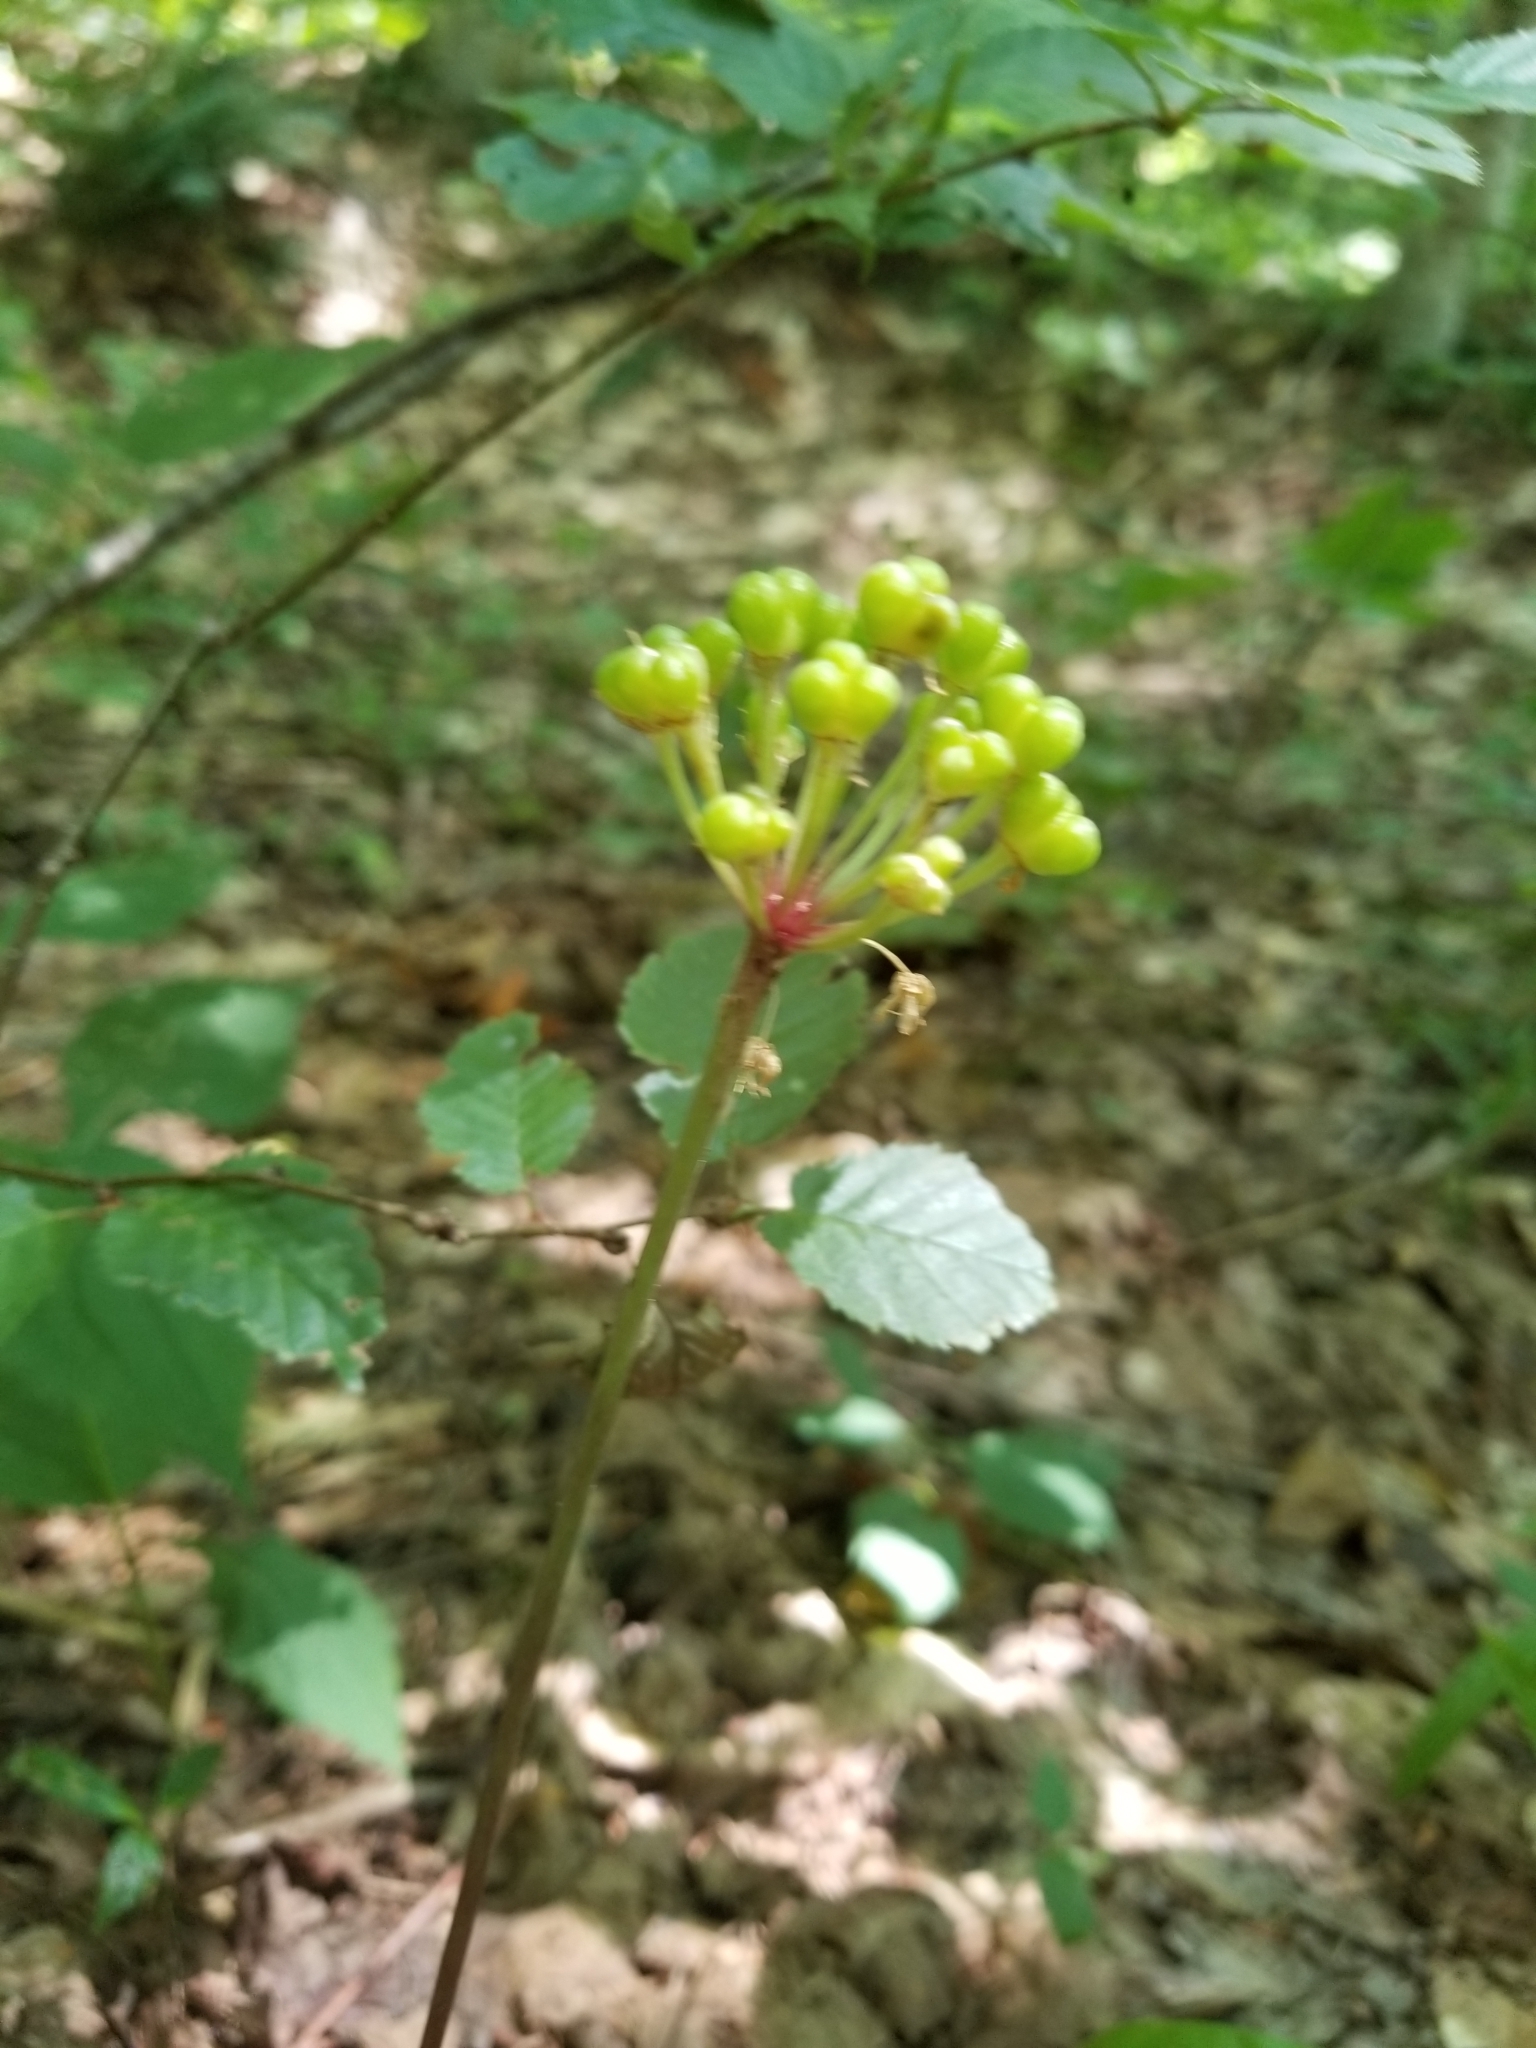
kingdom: Plantae
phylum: Tracheophyta
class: Liliopsida
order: Asparagales
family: Amaryllidaceae
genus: Allium
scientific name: Allium tricoccum
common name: Ramp
